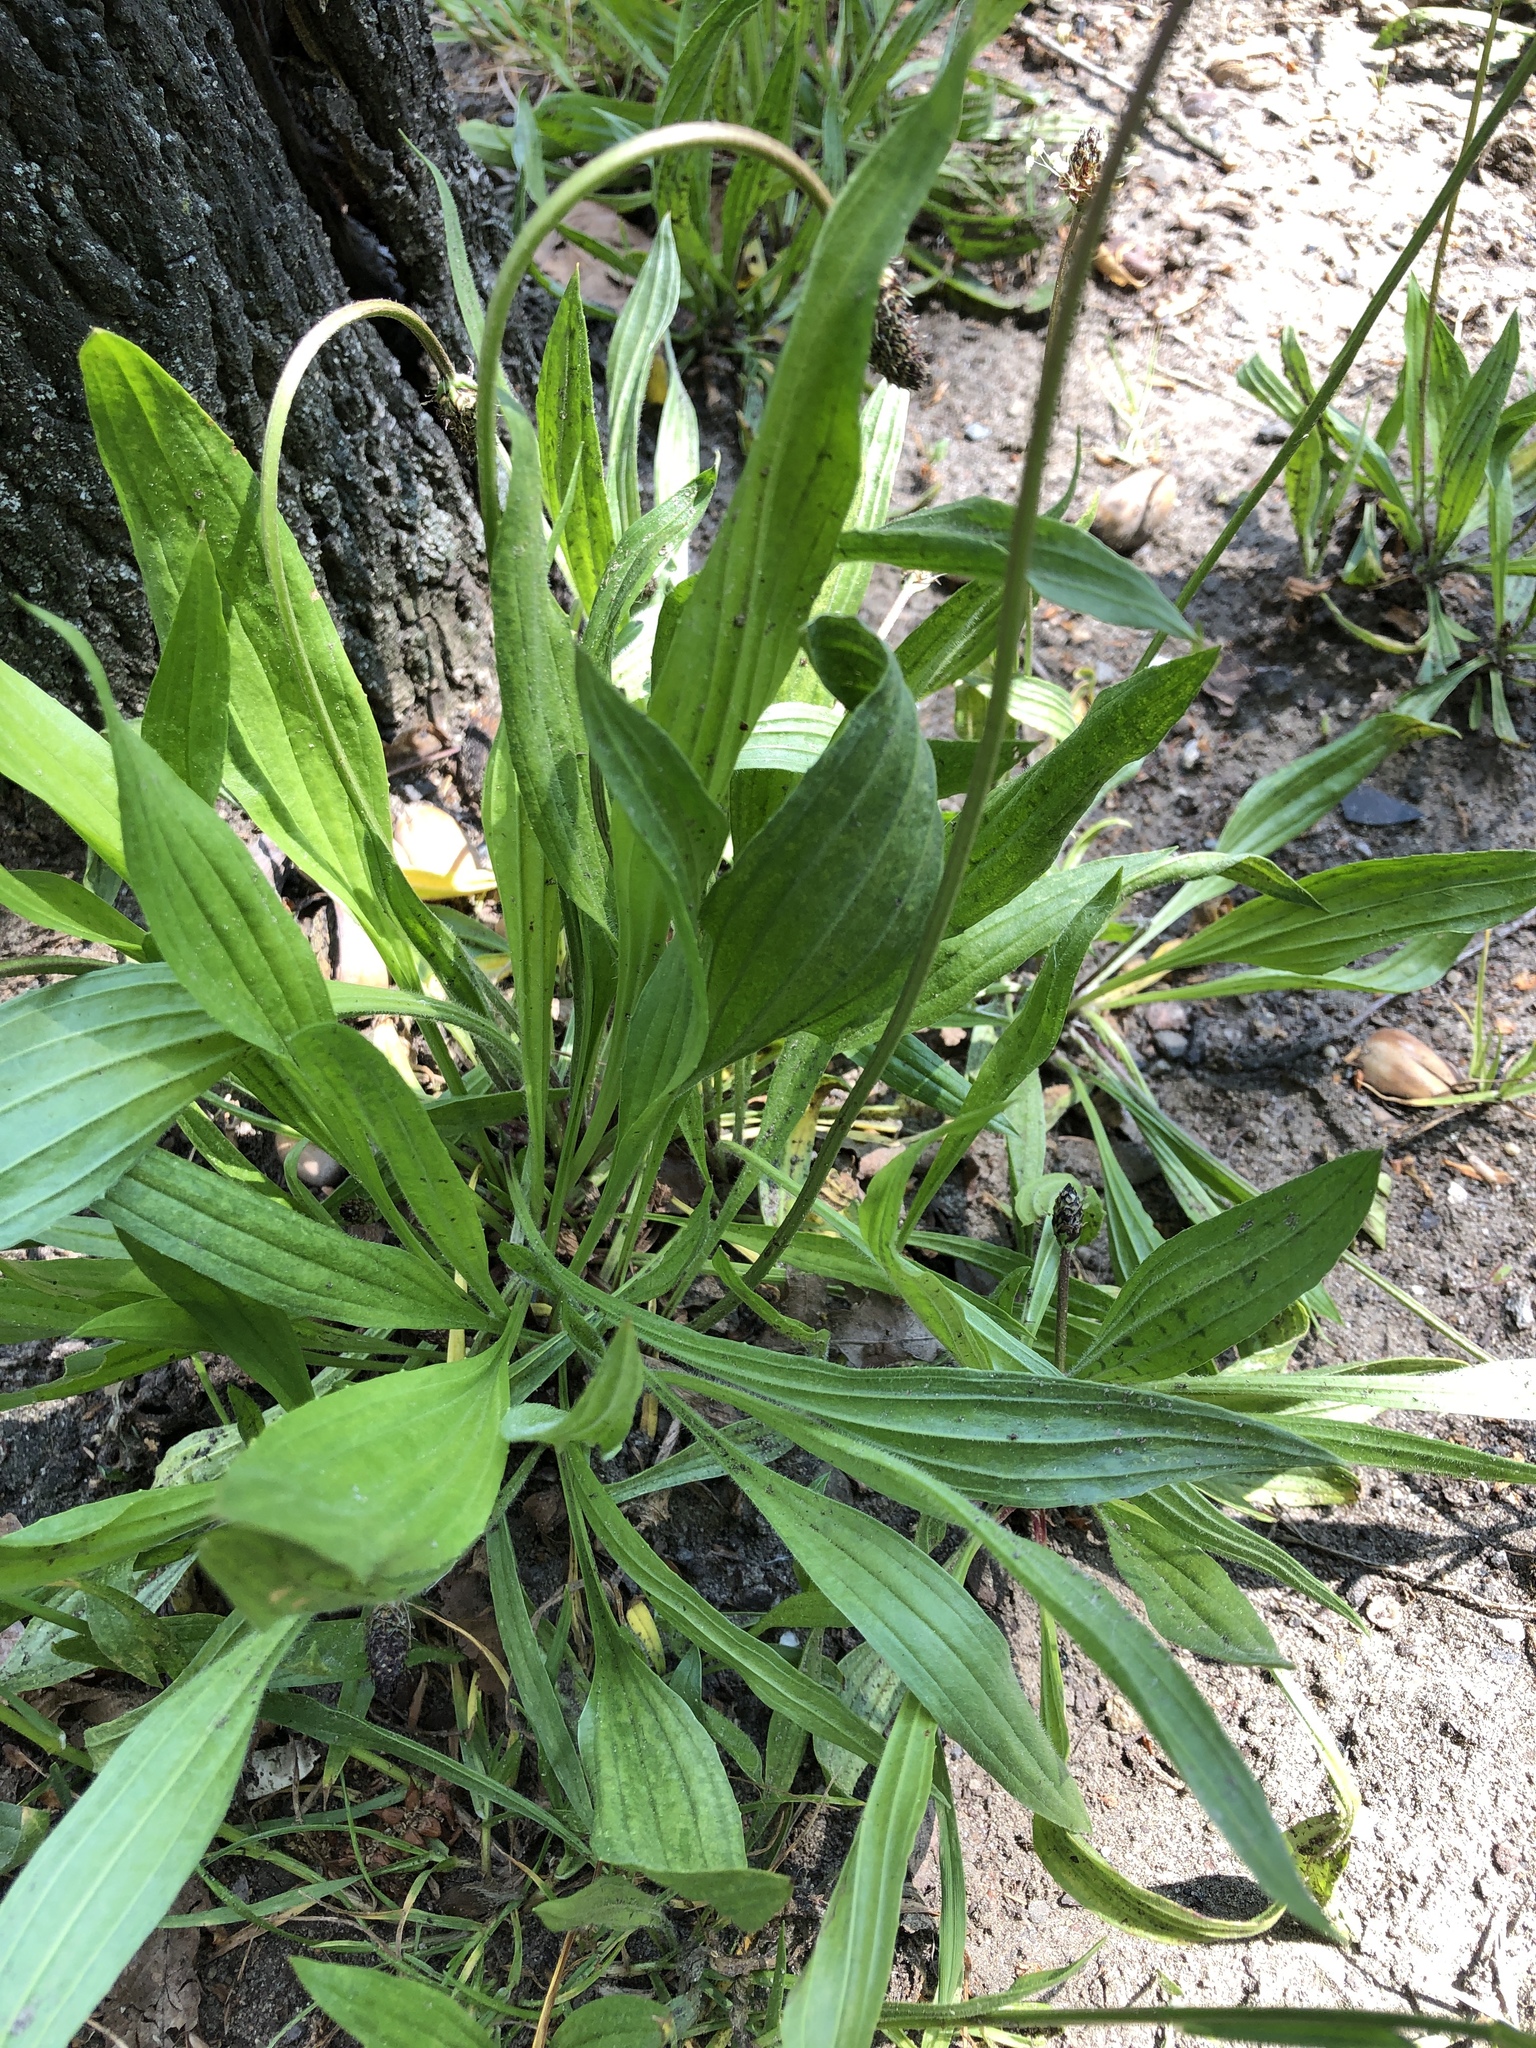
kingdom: Plantae
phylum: Tracheophyta
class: Magnoliopsida
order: Lamiales
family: Plantaginaceae
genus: Plantago
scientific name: Plantago lanceolata
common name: Ribwort plantain
